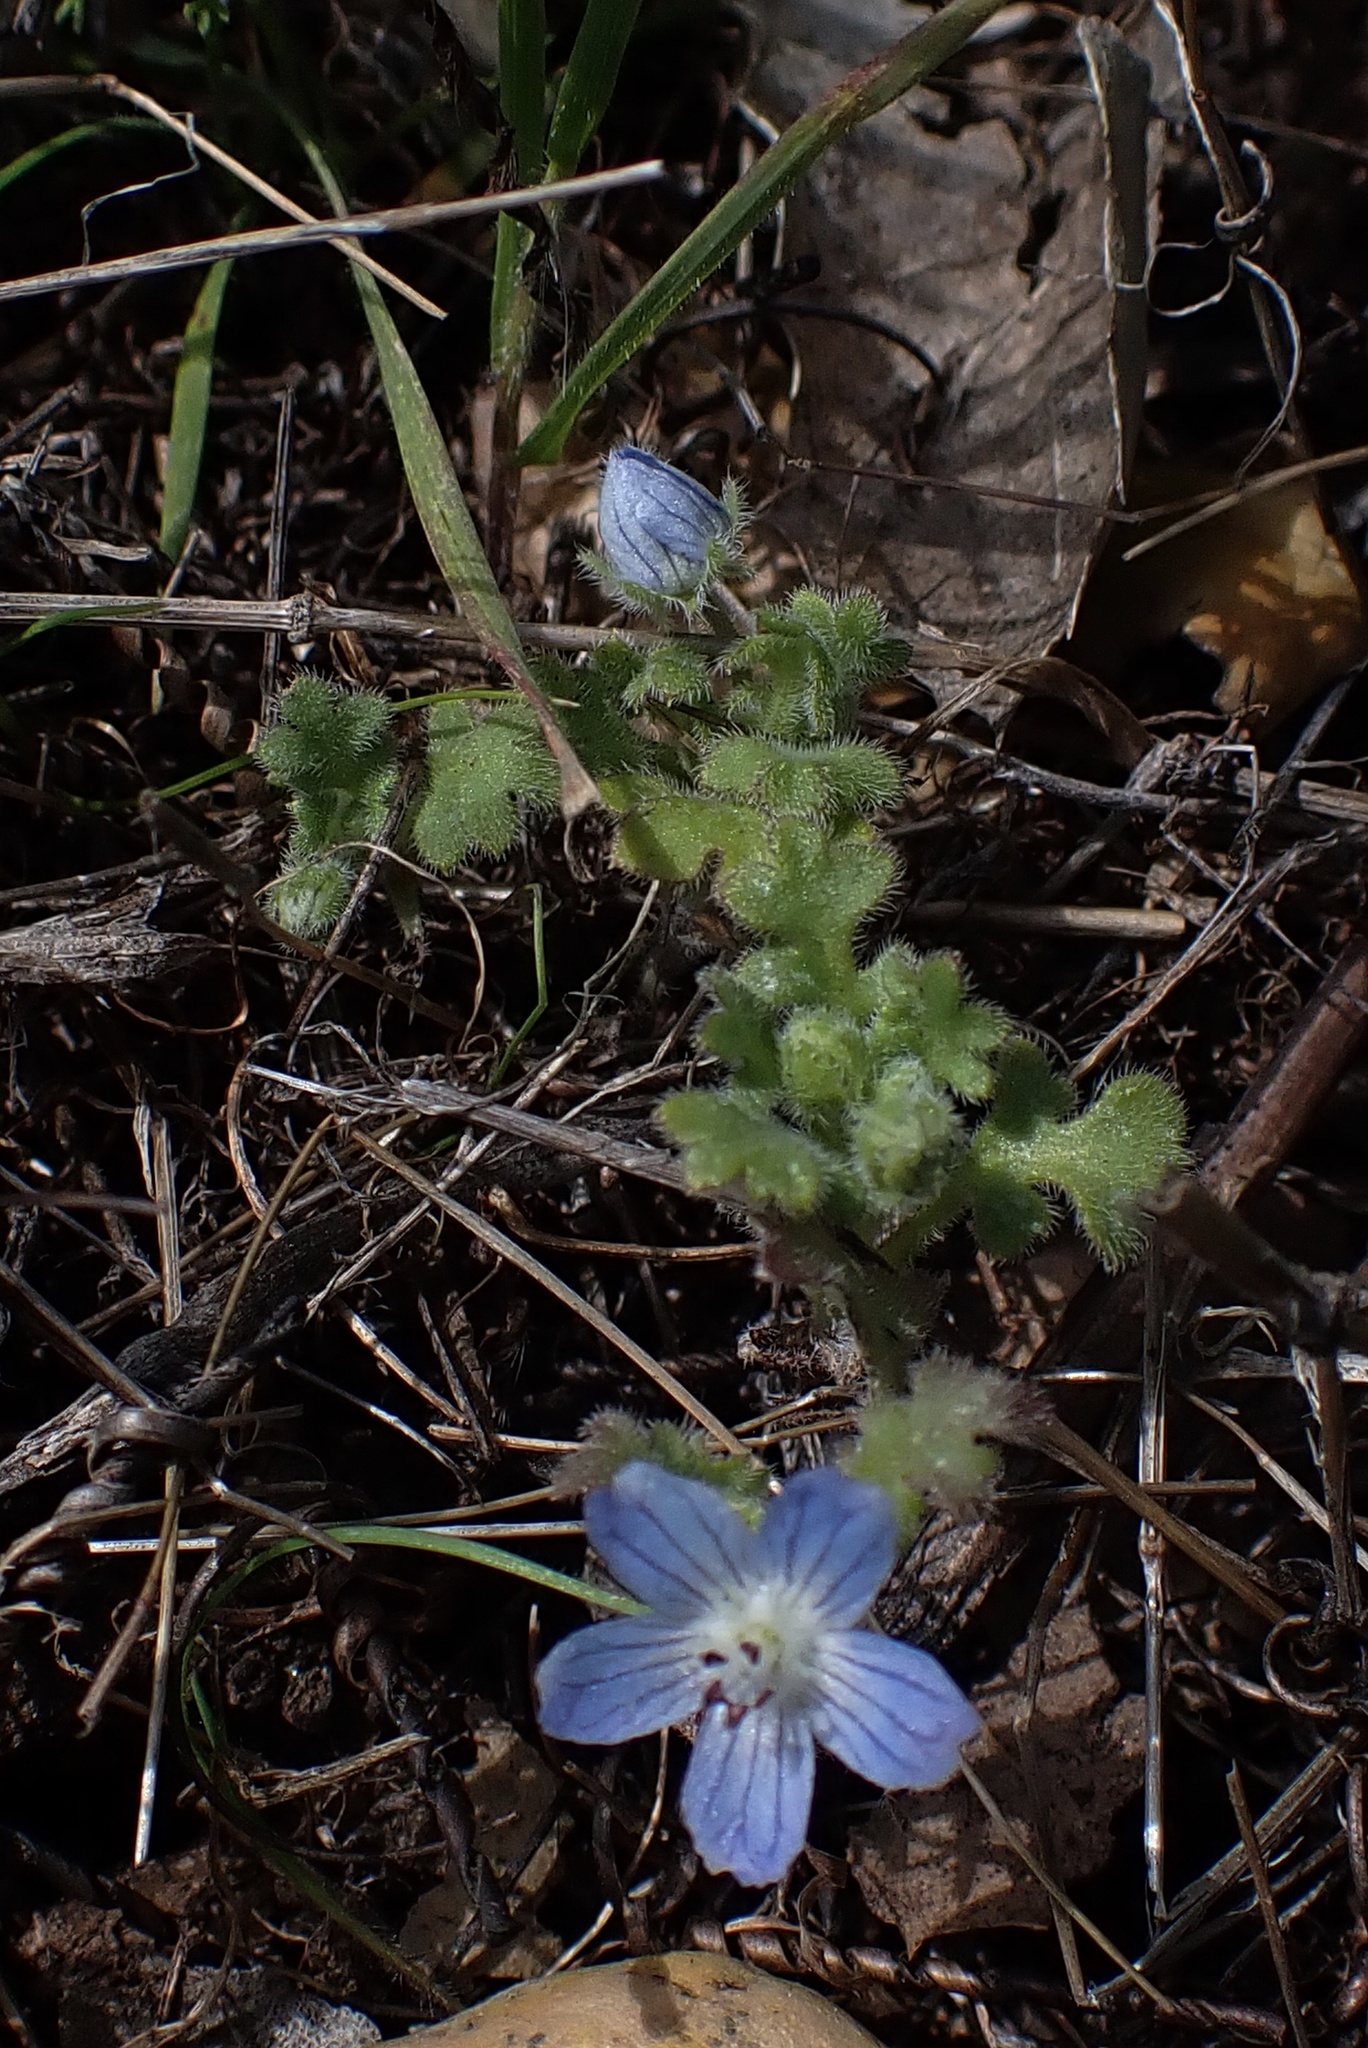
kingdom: Plantae
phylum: Tracheophyta
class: Magnoliopsida
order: Boraginales
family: Hydrophyllaceae
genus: Nemophila
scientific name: Nemophila menziesii
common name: Baby's-blue-eyes
